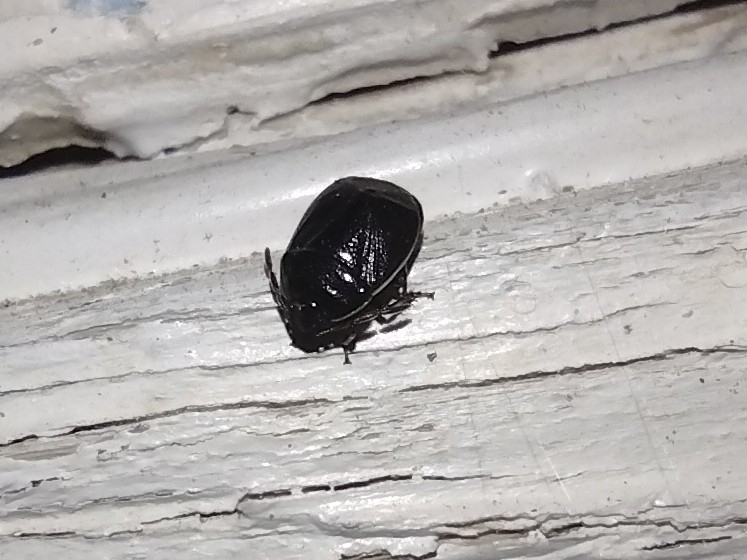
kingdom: Animalia
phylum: Arthropoda
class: Insecta
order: Hemiptera
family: Cydnidae
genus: Sehirus
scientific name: Sehirus cinctus
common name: White-margined burrower bug
